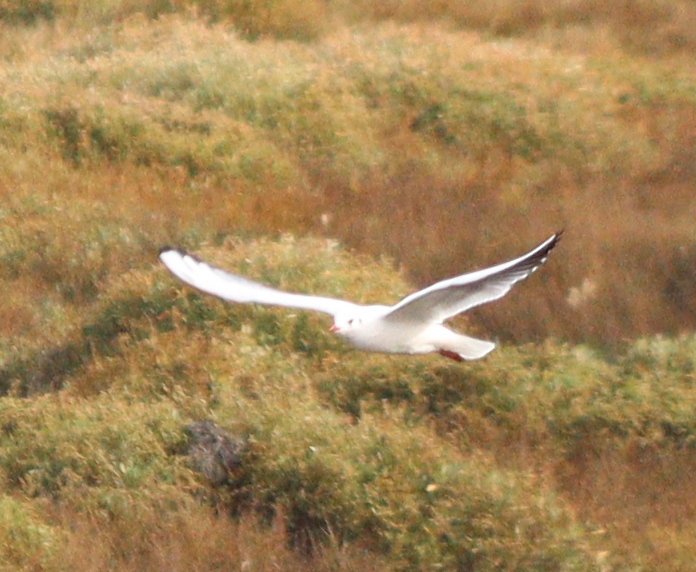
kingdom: Animalia
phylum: Chordata
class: Aves
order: Charadriiformes
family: Laridae
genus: Chroicocephalus
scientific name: Chroicocephalus ridibundus
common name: Black-headed gull
